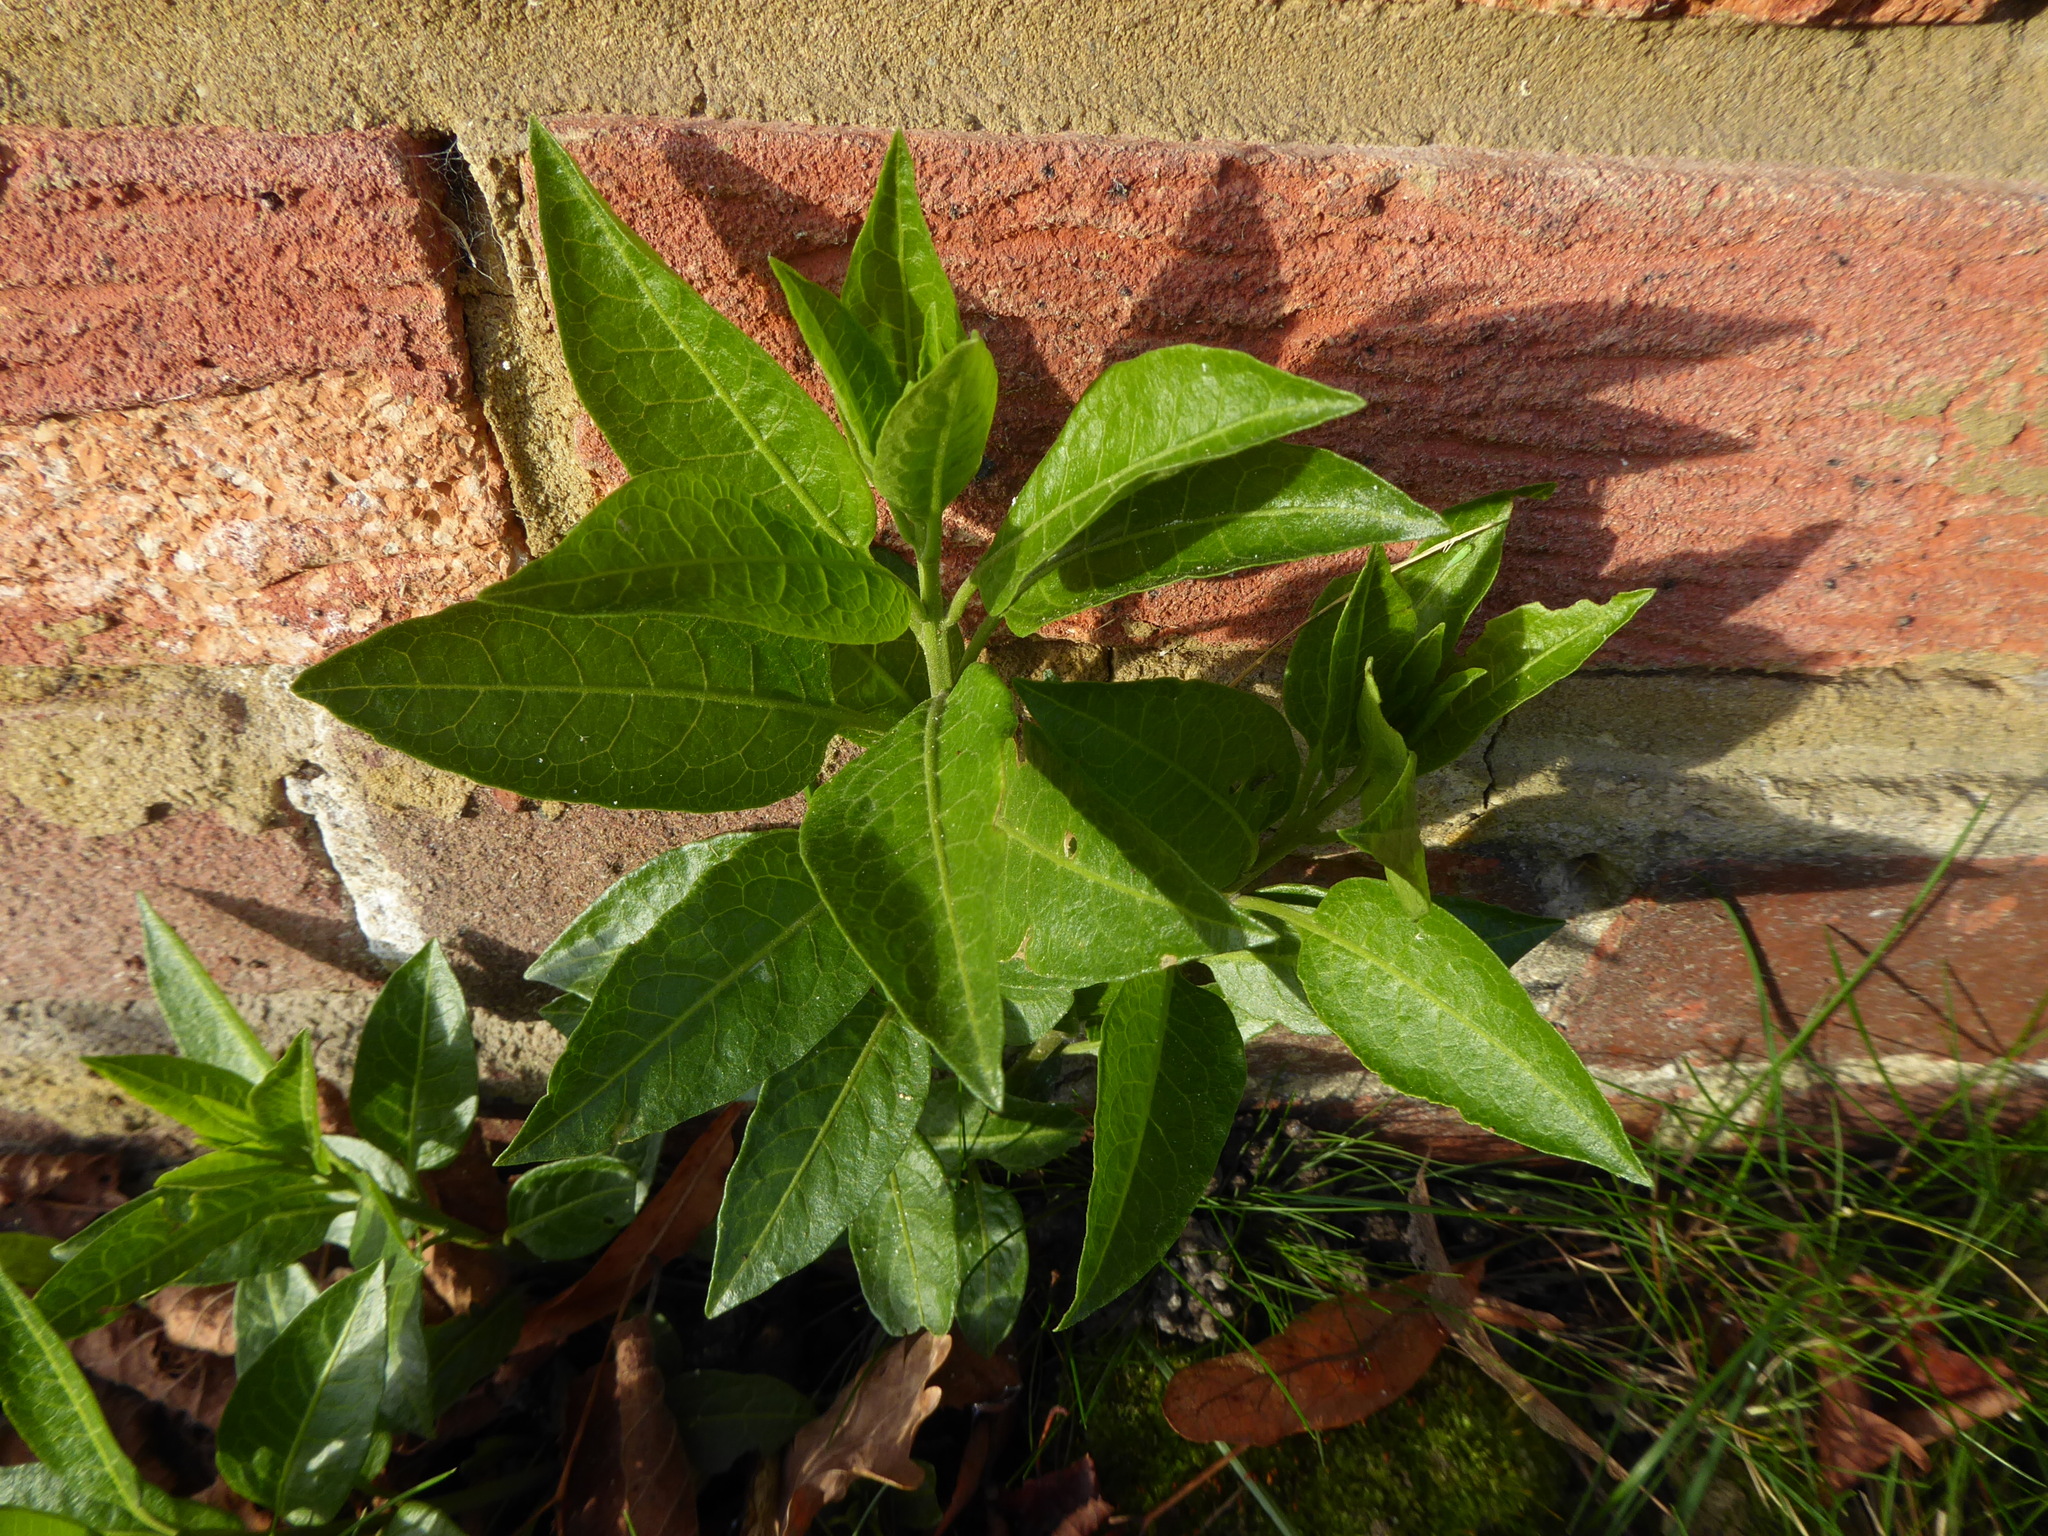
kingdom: Plantae
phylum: Tracheophyta
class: Magnoliopsida
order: Solanales
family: Solanaceae
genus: Solanum
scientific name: Solanum crispum
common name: Chilean nightshade
